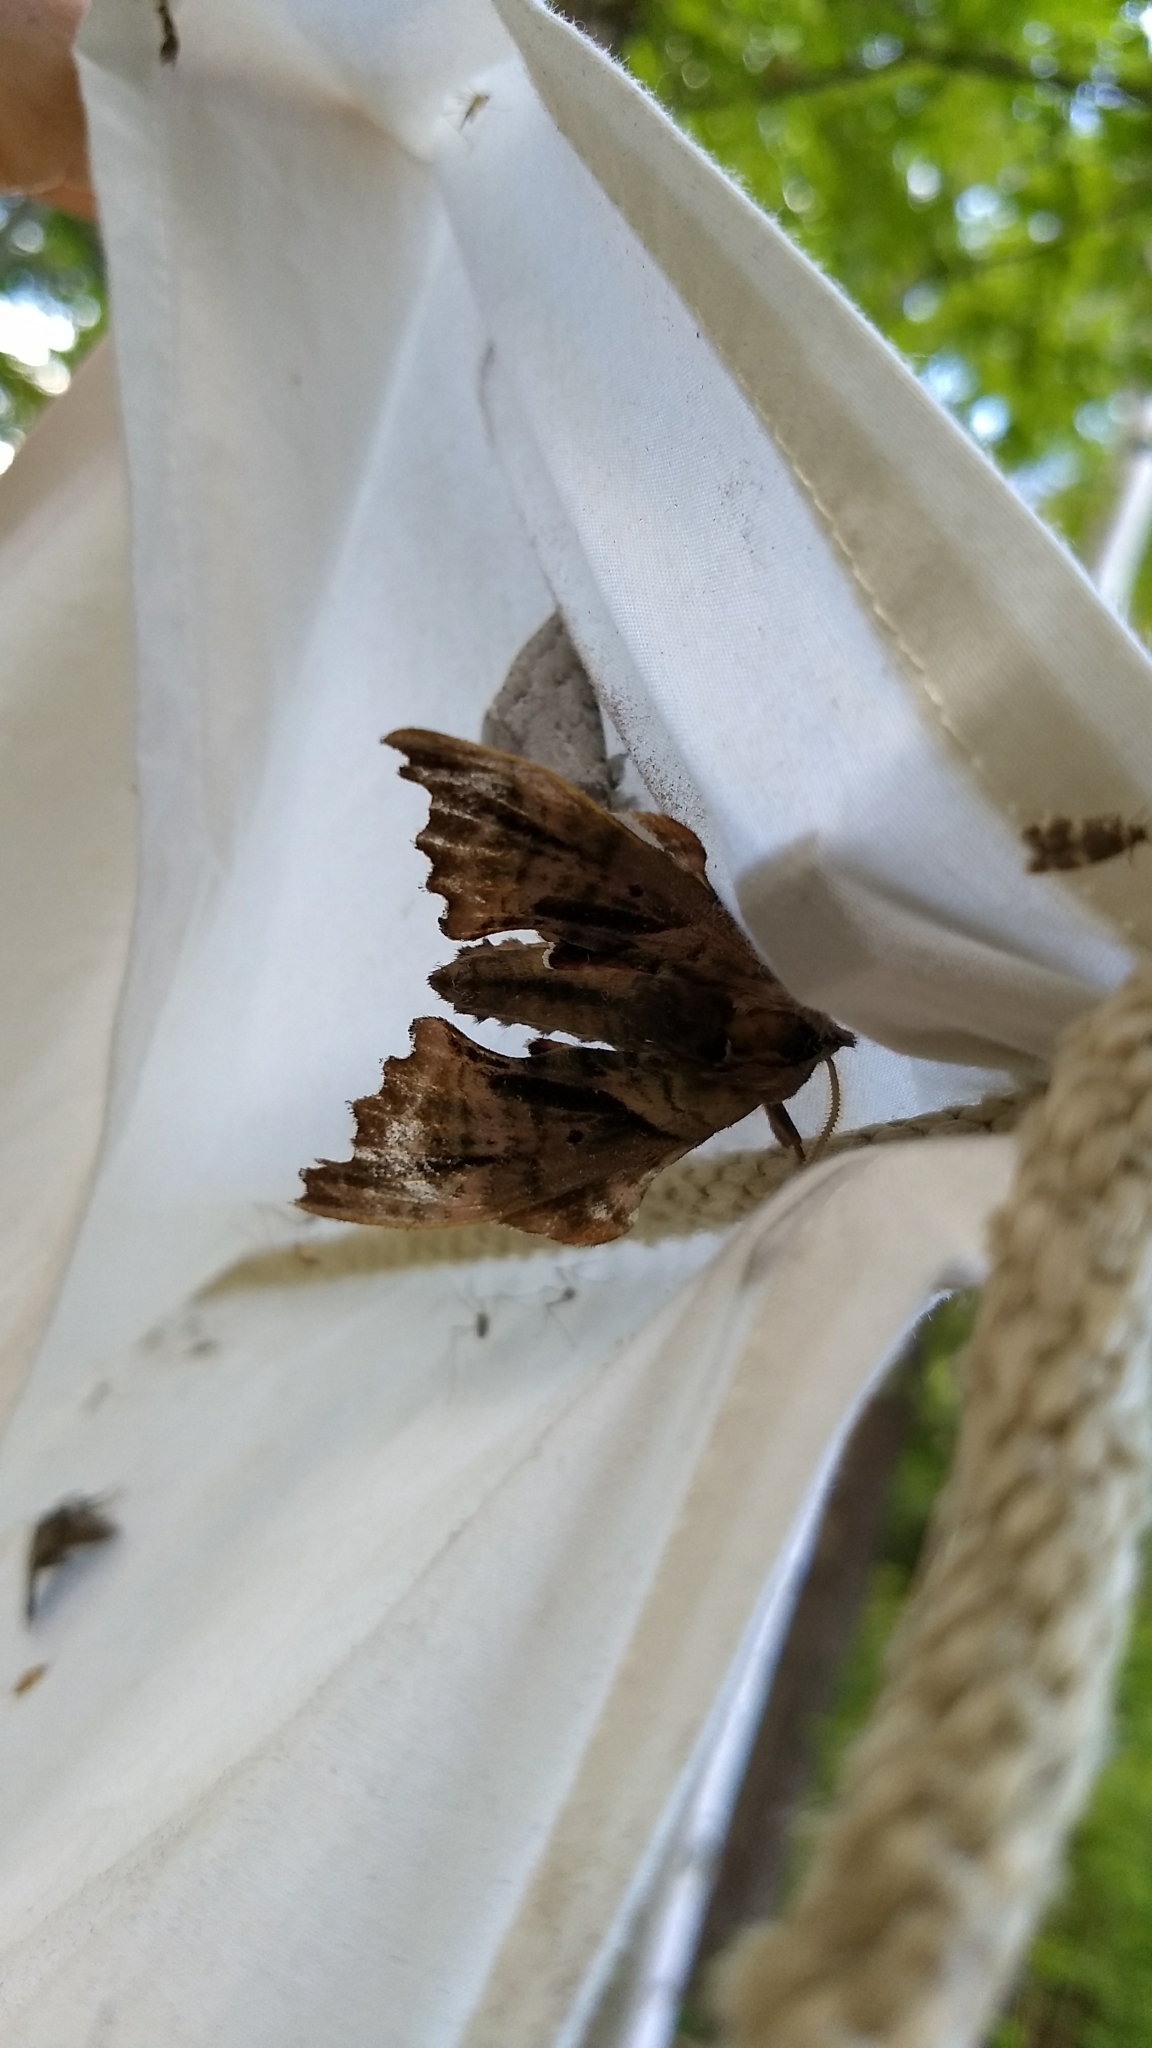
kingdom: Animalia
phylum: Arthropoda
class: Insecta
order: Lepidoptera
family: Sphingidae
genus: Paonias
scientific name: Paonias excaecata
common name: Blind-eyed sphinx
